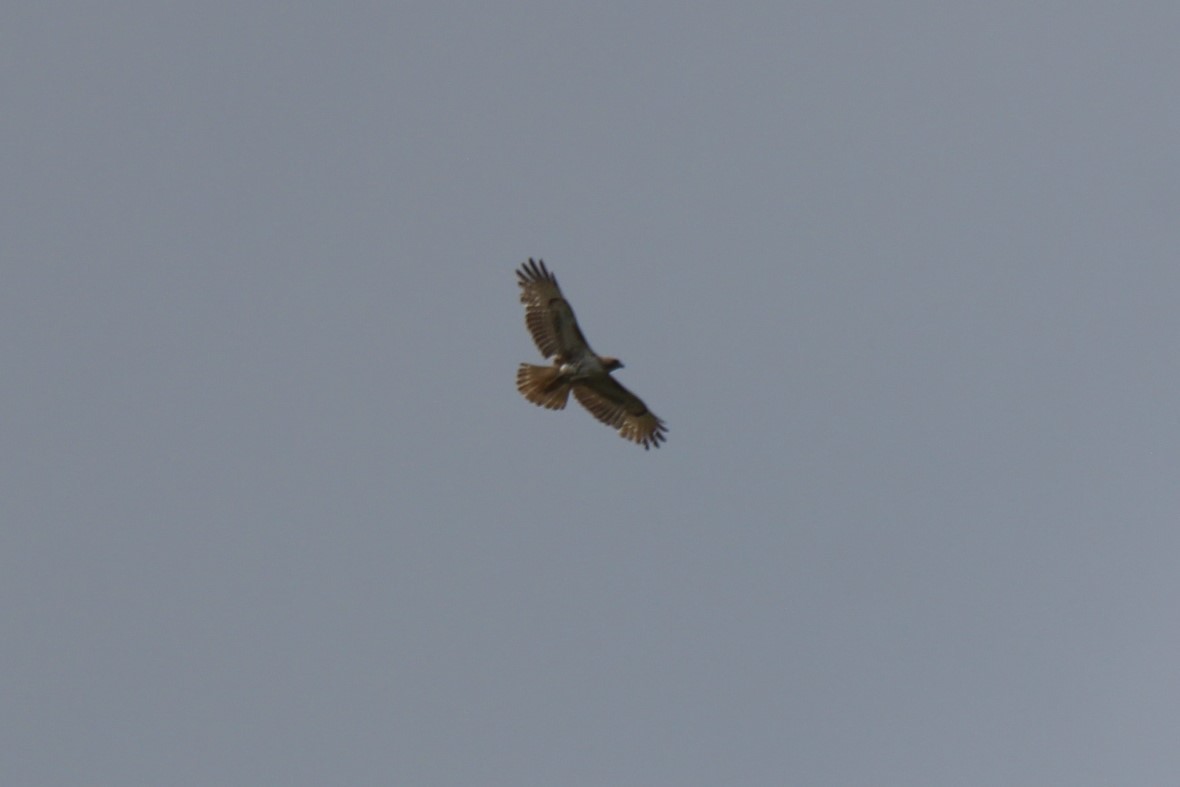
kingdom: Animalia
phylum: Chordata
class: Aves
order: Accipitriformes
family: Accipitridae
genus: Buteo
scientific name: Buteo jamaicensis
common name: Red-tailed hawk
